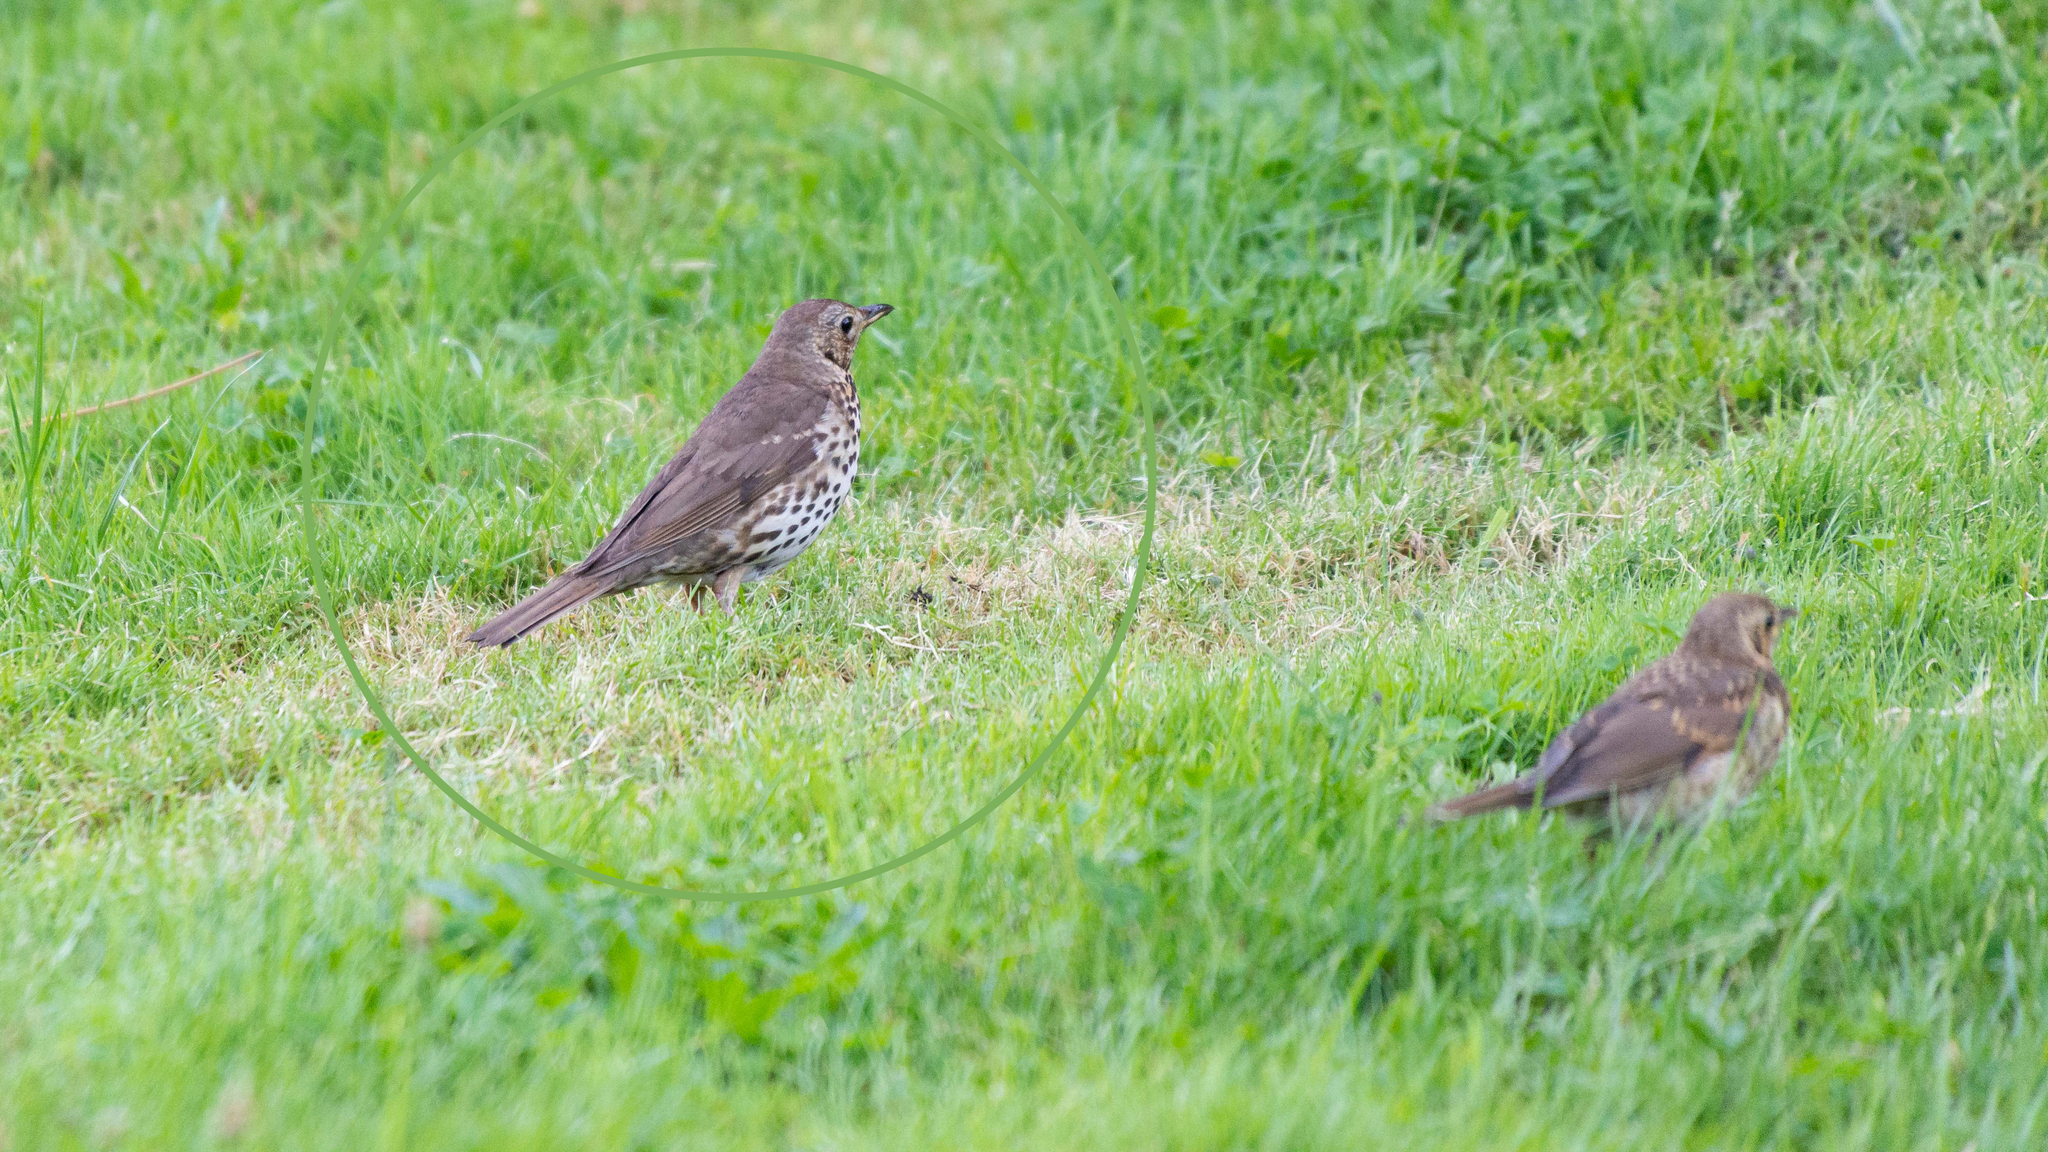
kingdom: Animalia
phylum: Chordata
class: Aves
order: Passeriformes
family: Turdidae
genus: Turdus
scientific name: Turdus philomelos
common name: Song thrush
